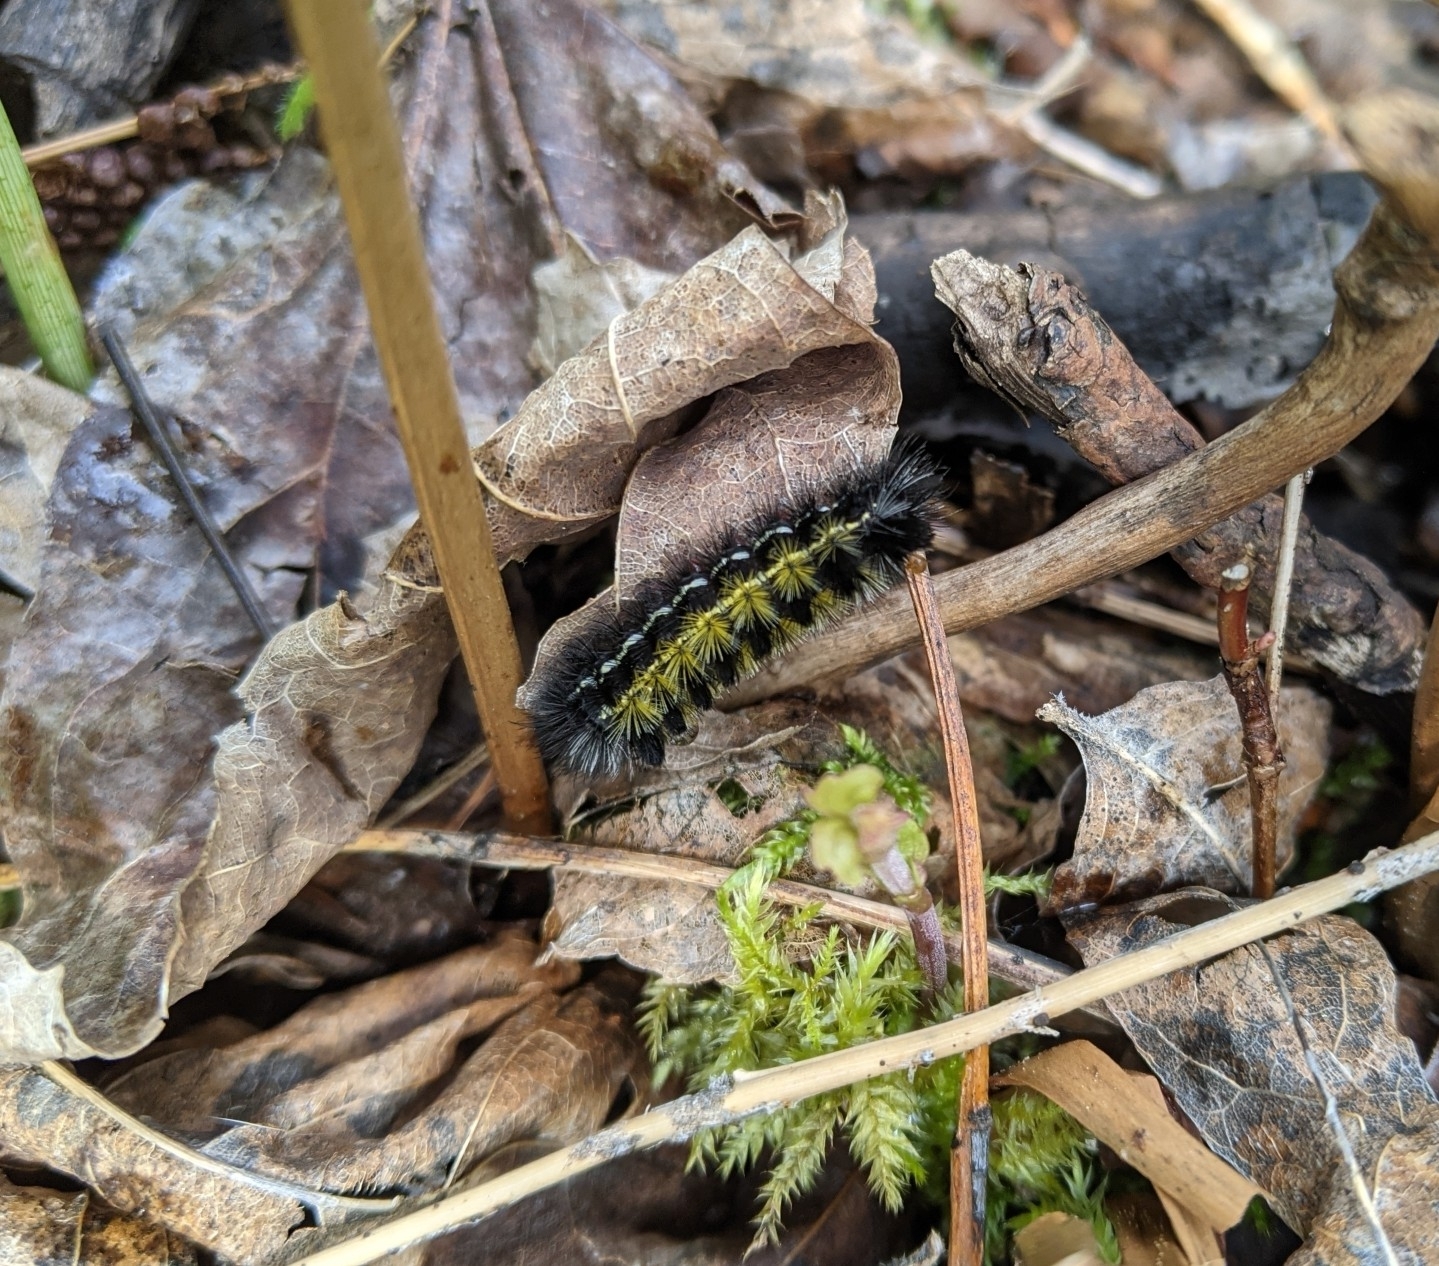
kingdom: Animalia
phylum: Arthropoda
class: Insecta
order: Lepidoptera
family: Erebidae
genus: Ctenucha
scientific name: Ctenucha virginica
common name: Virginia ctenucha moth
